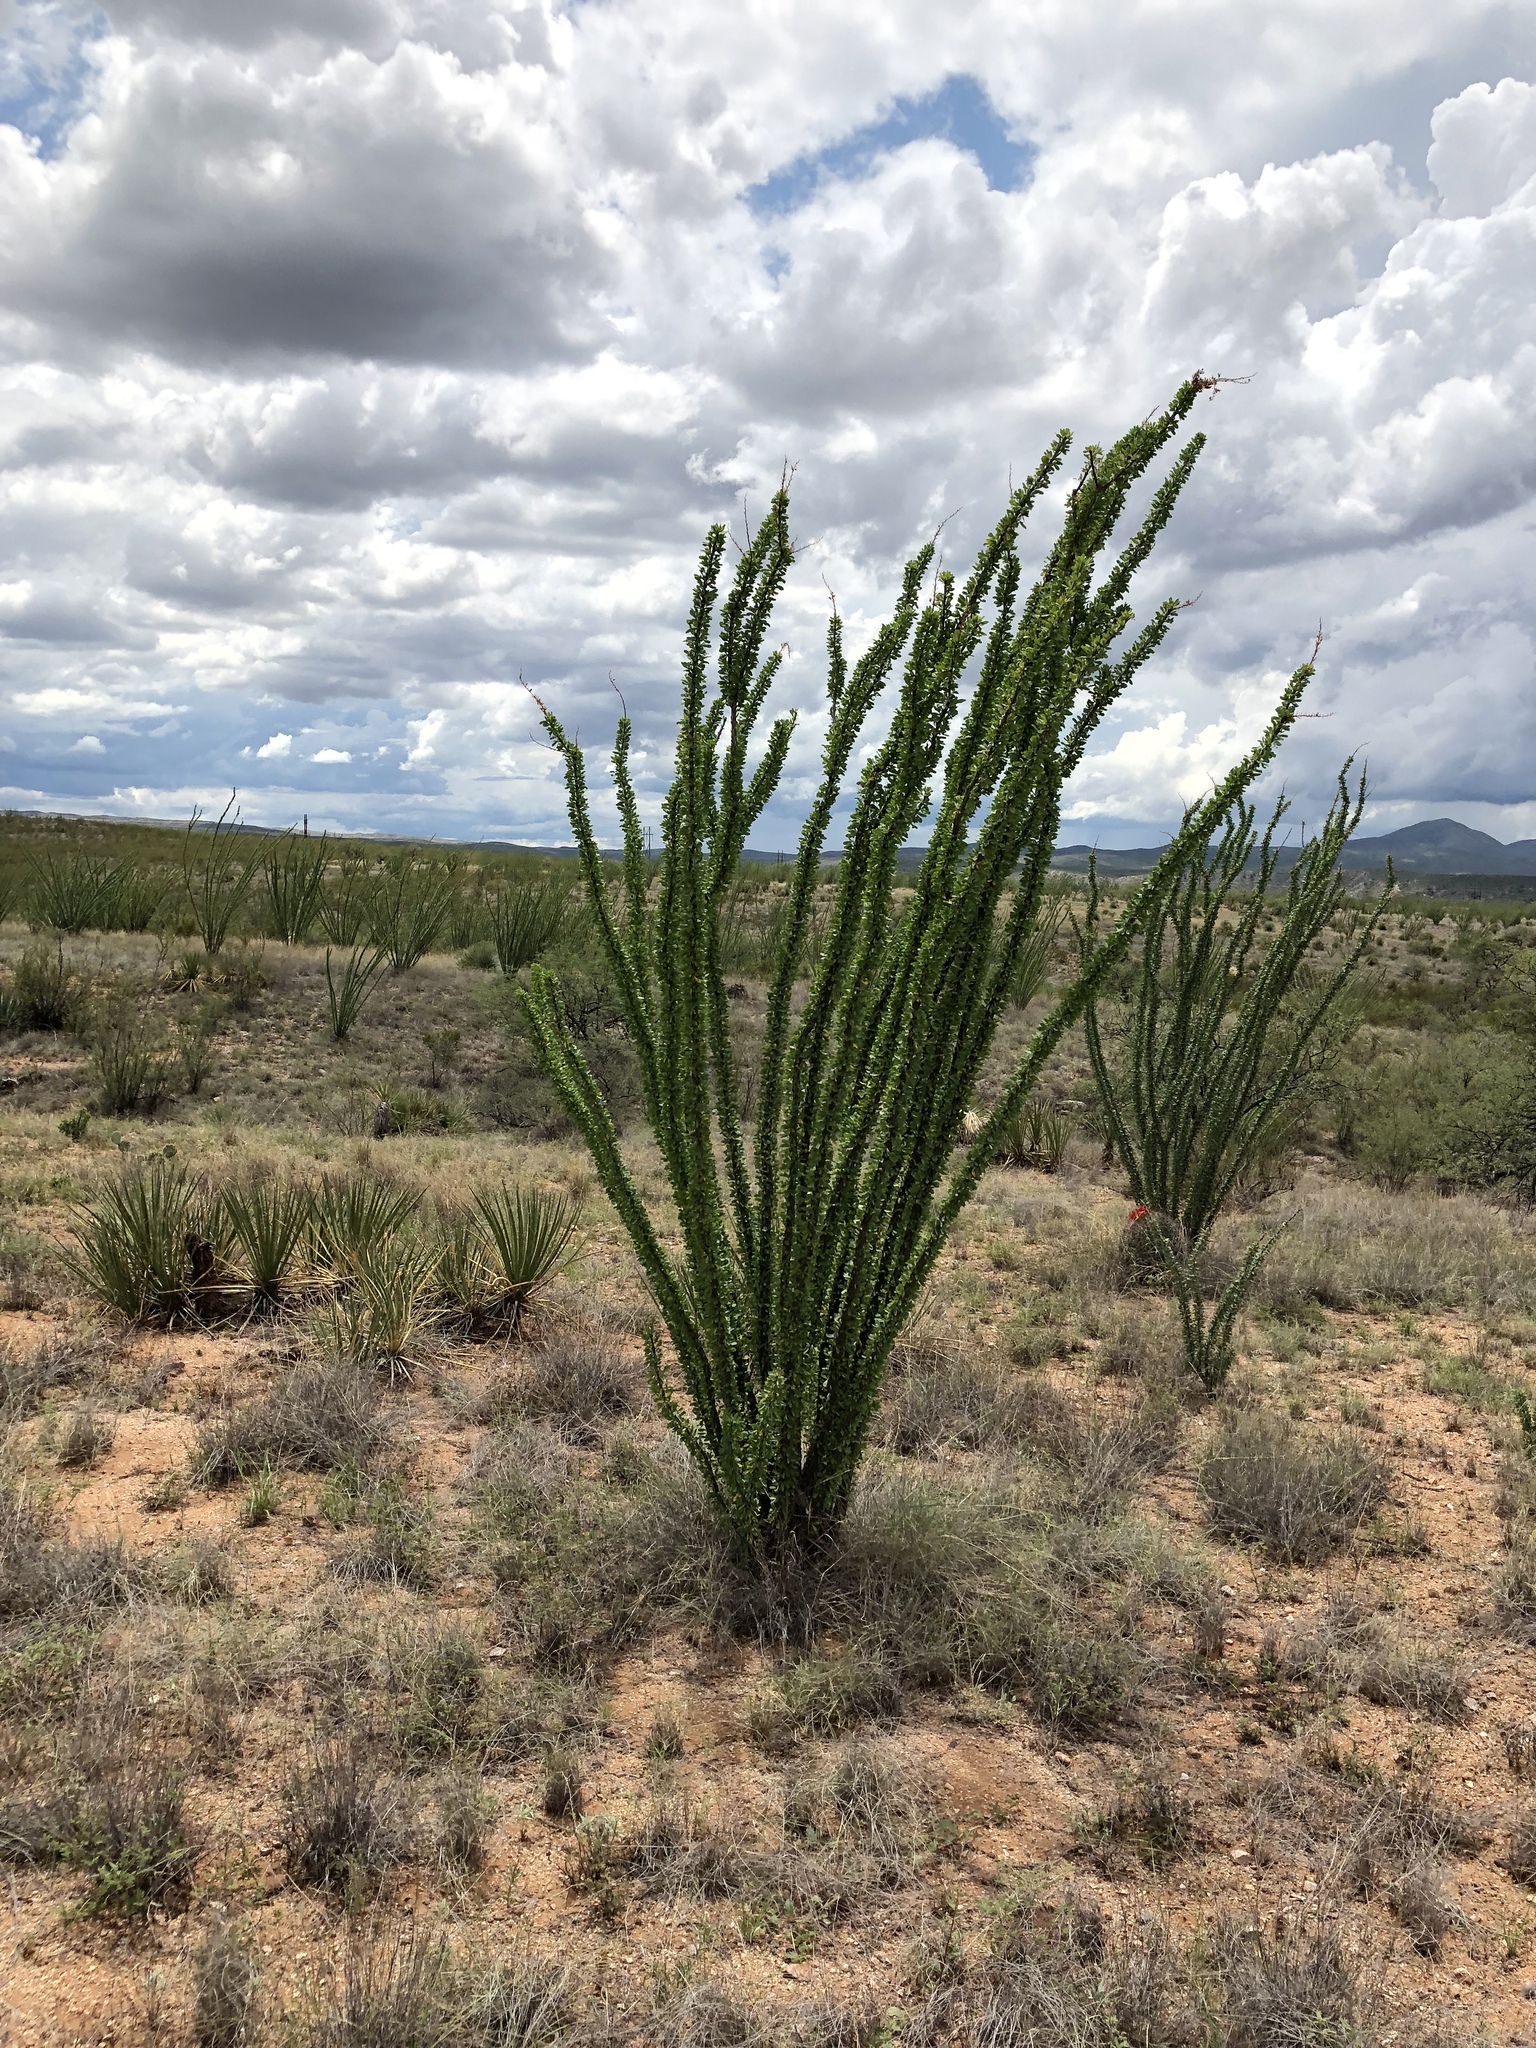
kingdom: Plantae
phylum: Tracheophyta
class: Magnoliopsida
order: Ericales
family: Fouquieriaceae
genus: Fouquieria
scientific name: Fouquieria splendens
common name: Vine-cactus
